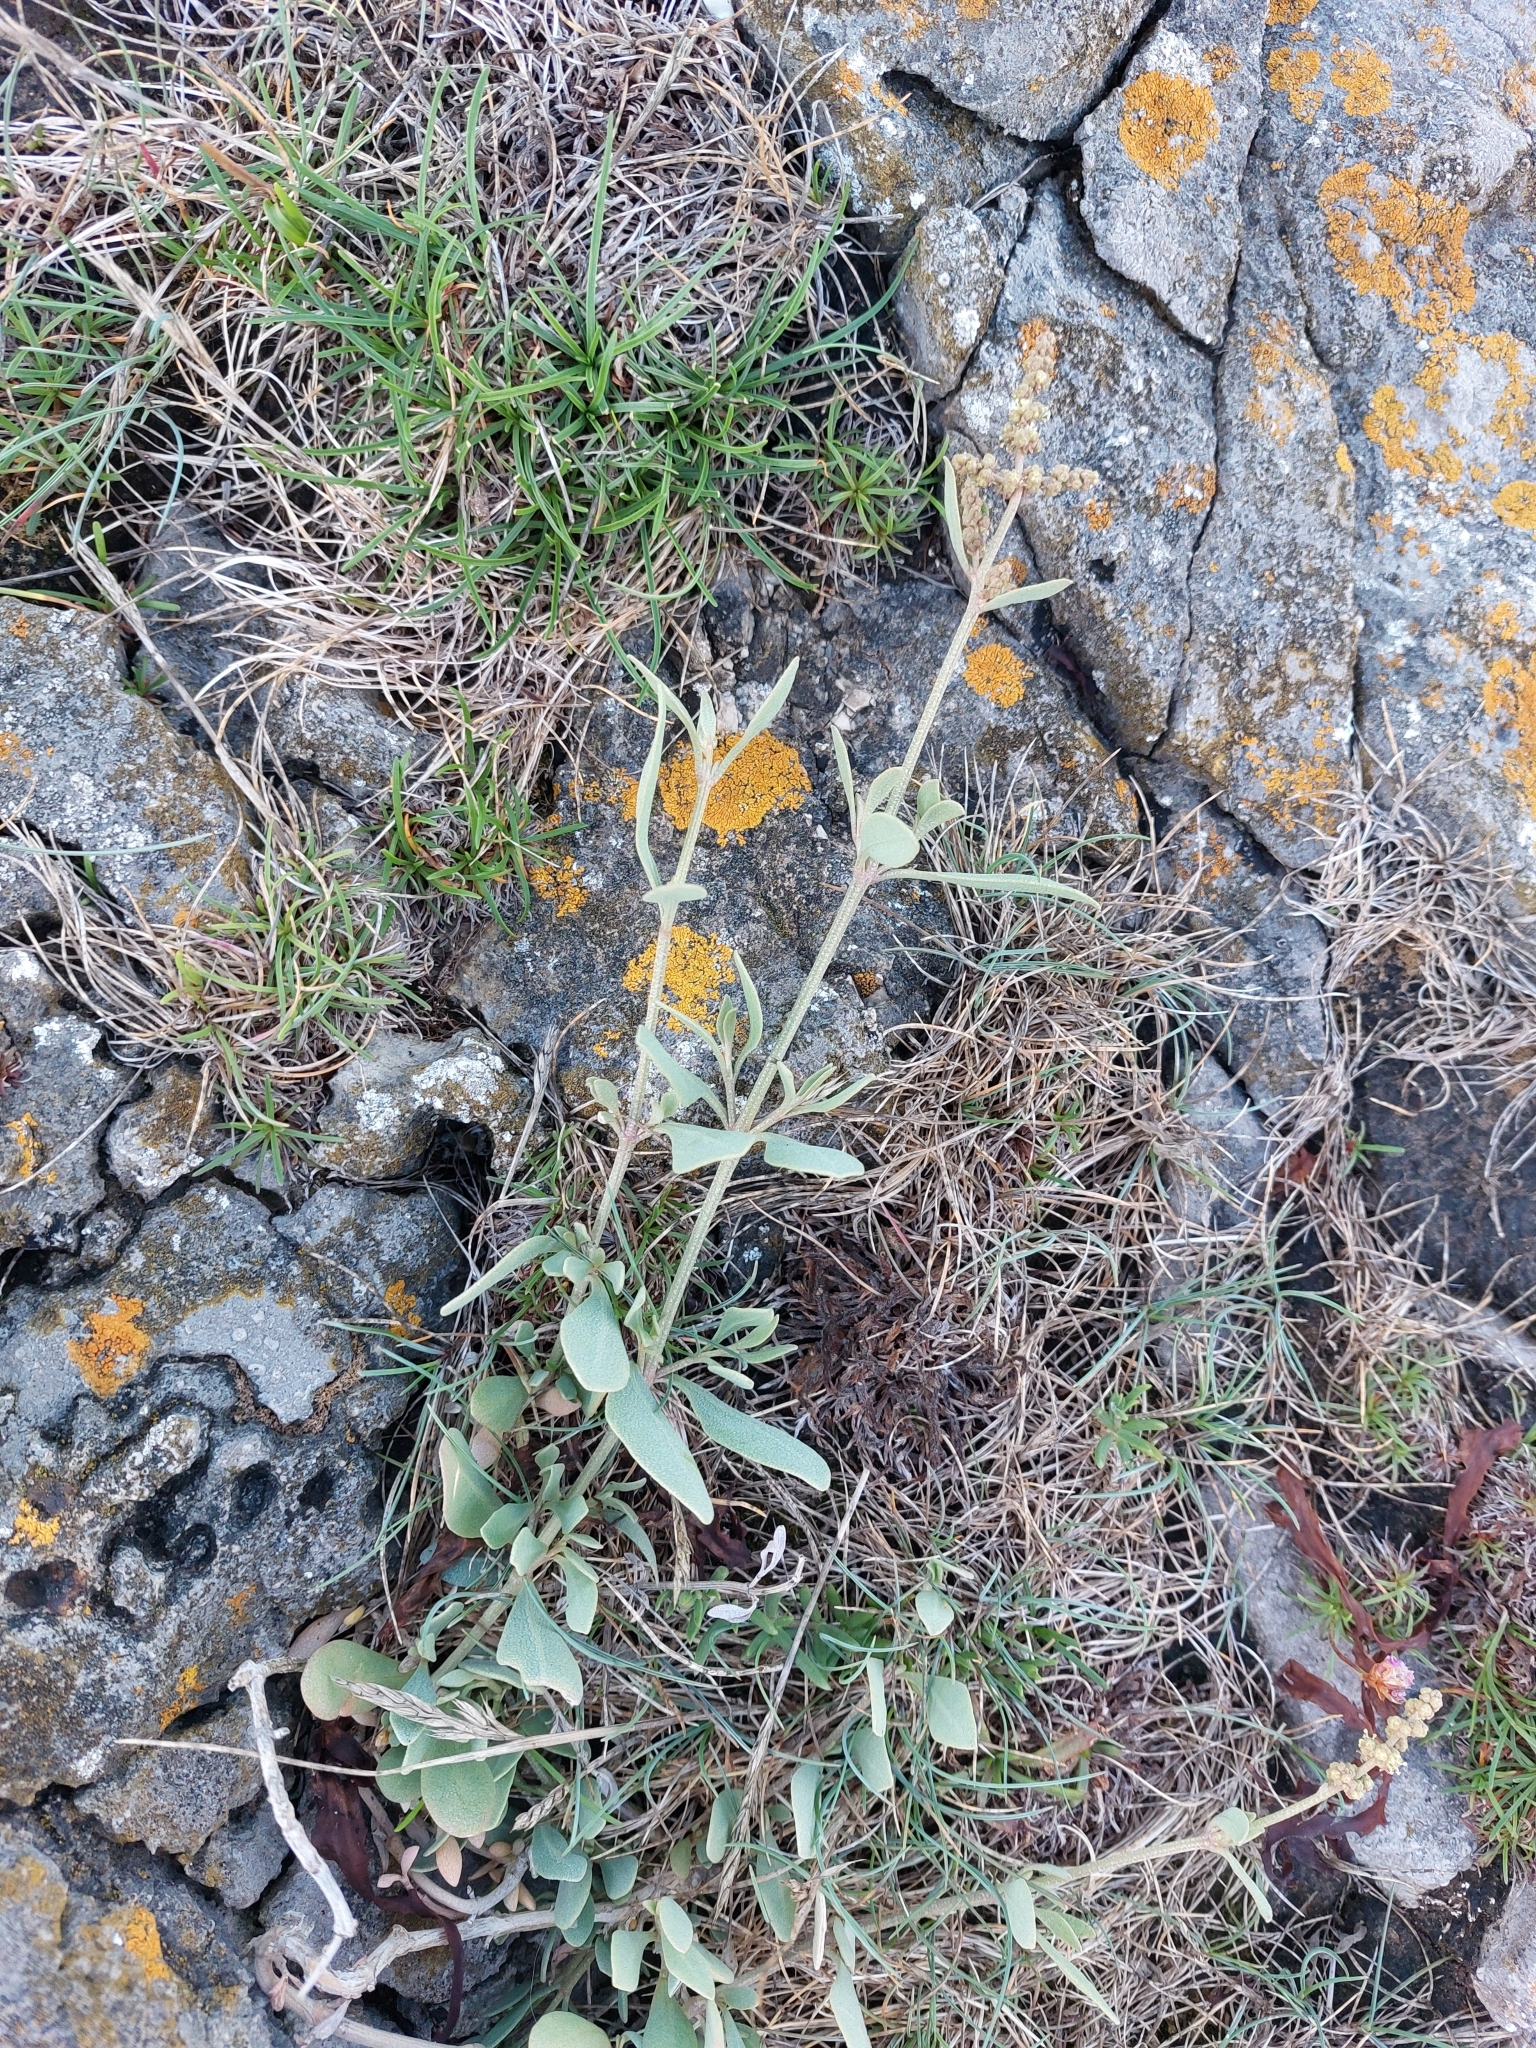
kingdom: Plantae
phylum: Tracheophyta
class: Magnoliopsida
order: Caryophyllales
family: Amaranthaceae
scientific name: Amaranthaceae
